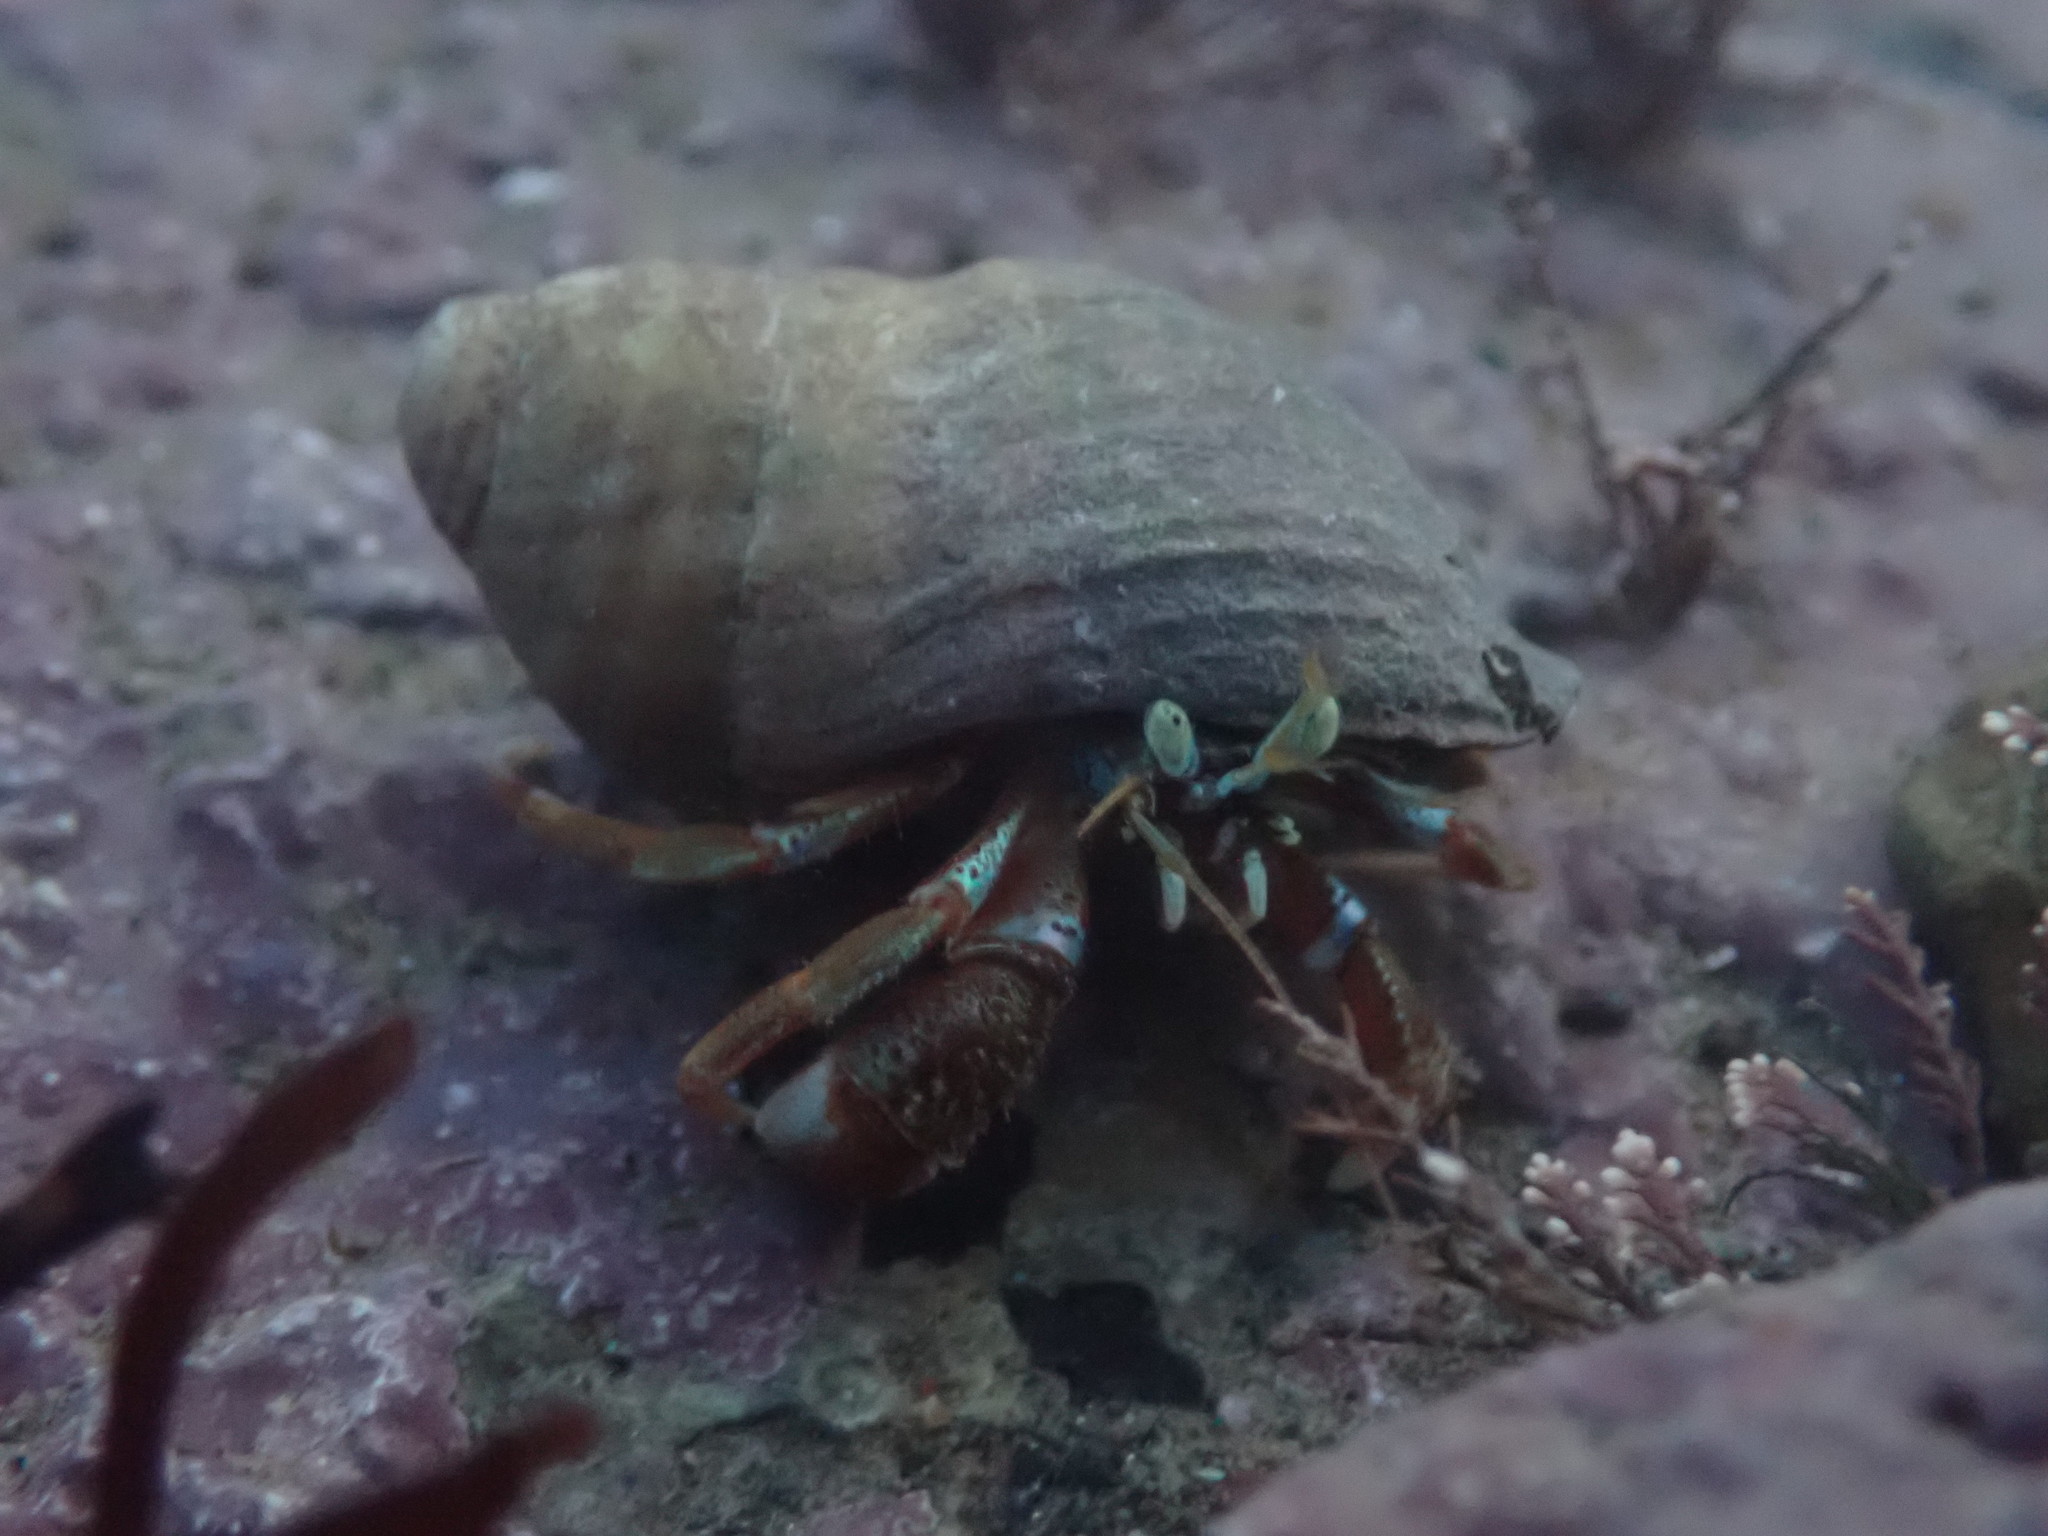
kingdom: Animalia
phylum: Arthropoda
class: Malacostraca
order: Decapoda
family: Paguridae
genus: Pagurus
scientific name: Pagurus acadianus
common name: Acadian hermit crab
